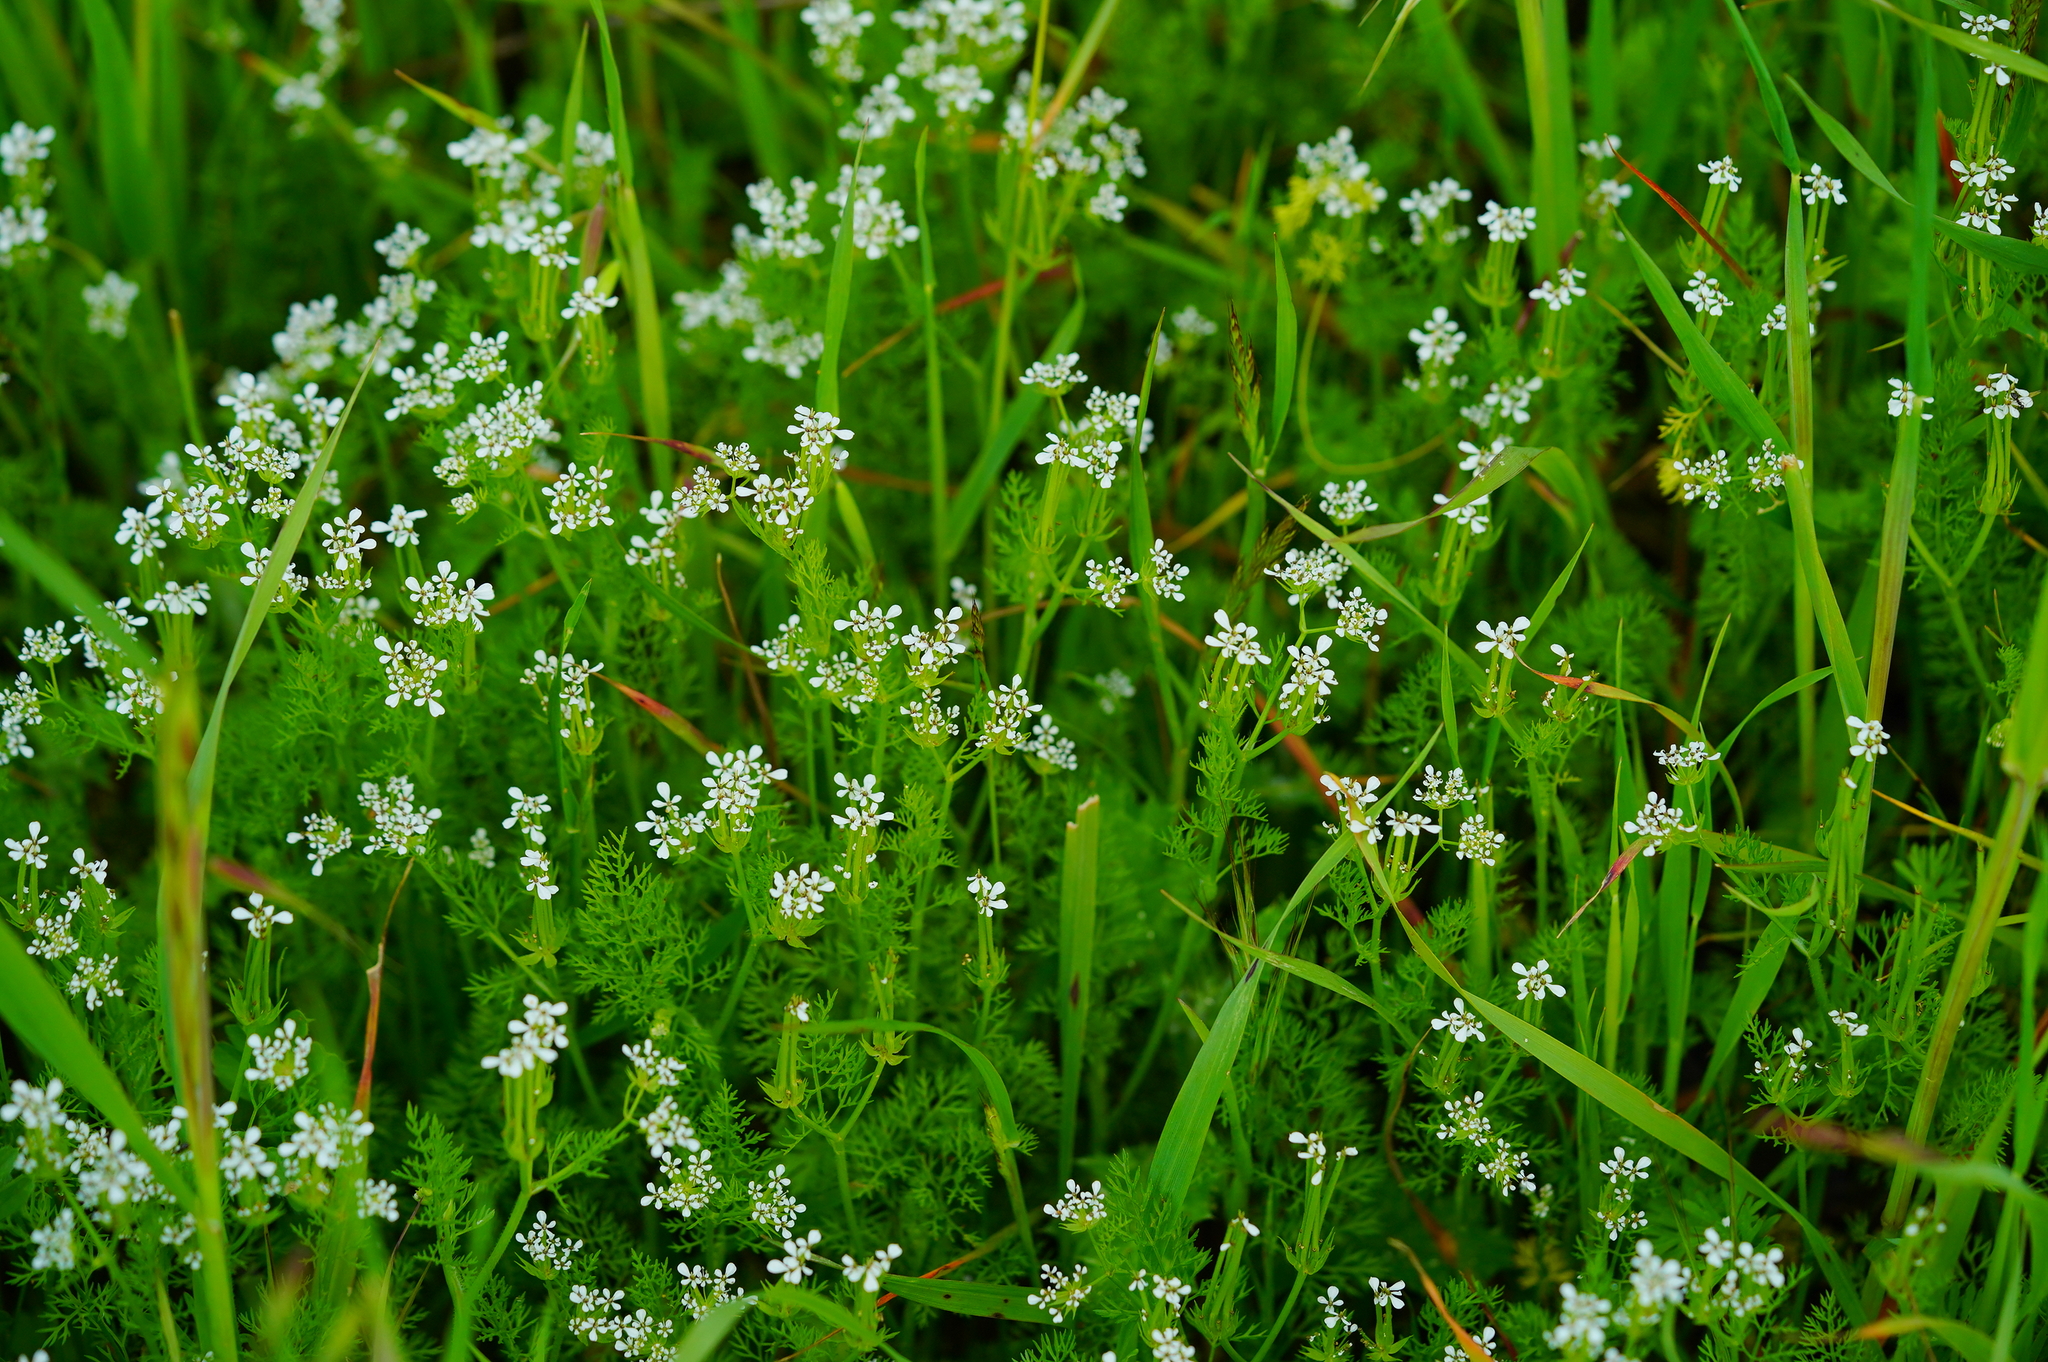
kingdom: Plantae
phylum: Tracheophyta
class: Magnoliopsida
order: Apiales
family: Apiaceae
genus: Scandix
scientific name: Scandix pecten-veneris
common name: Shepherd's-needle
